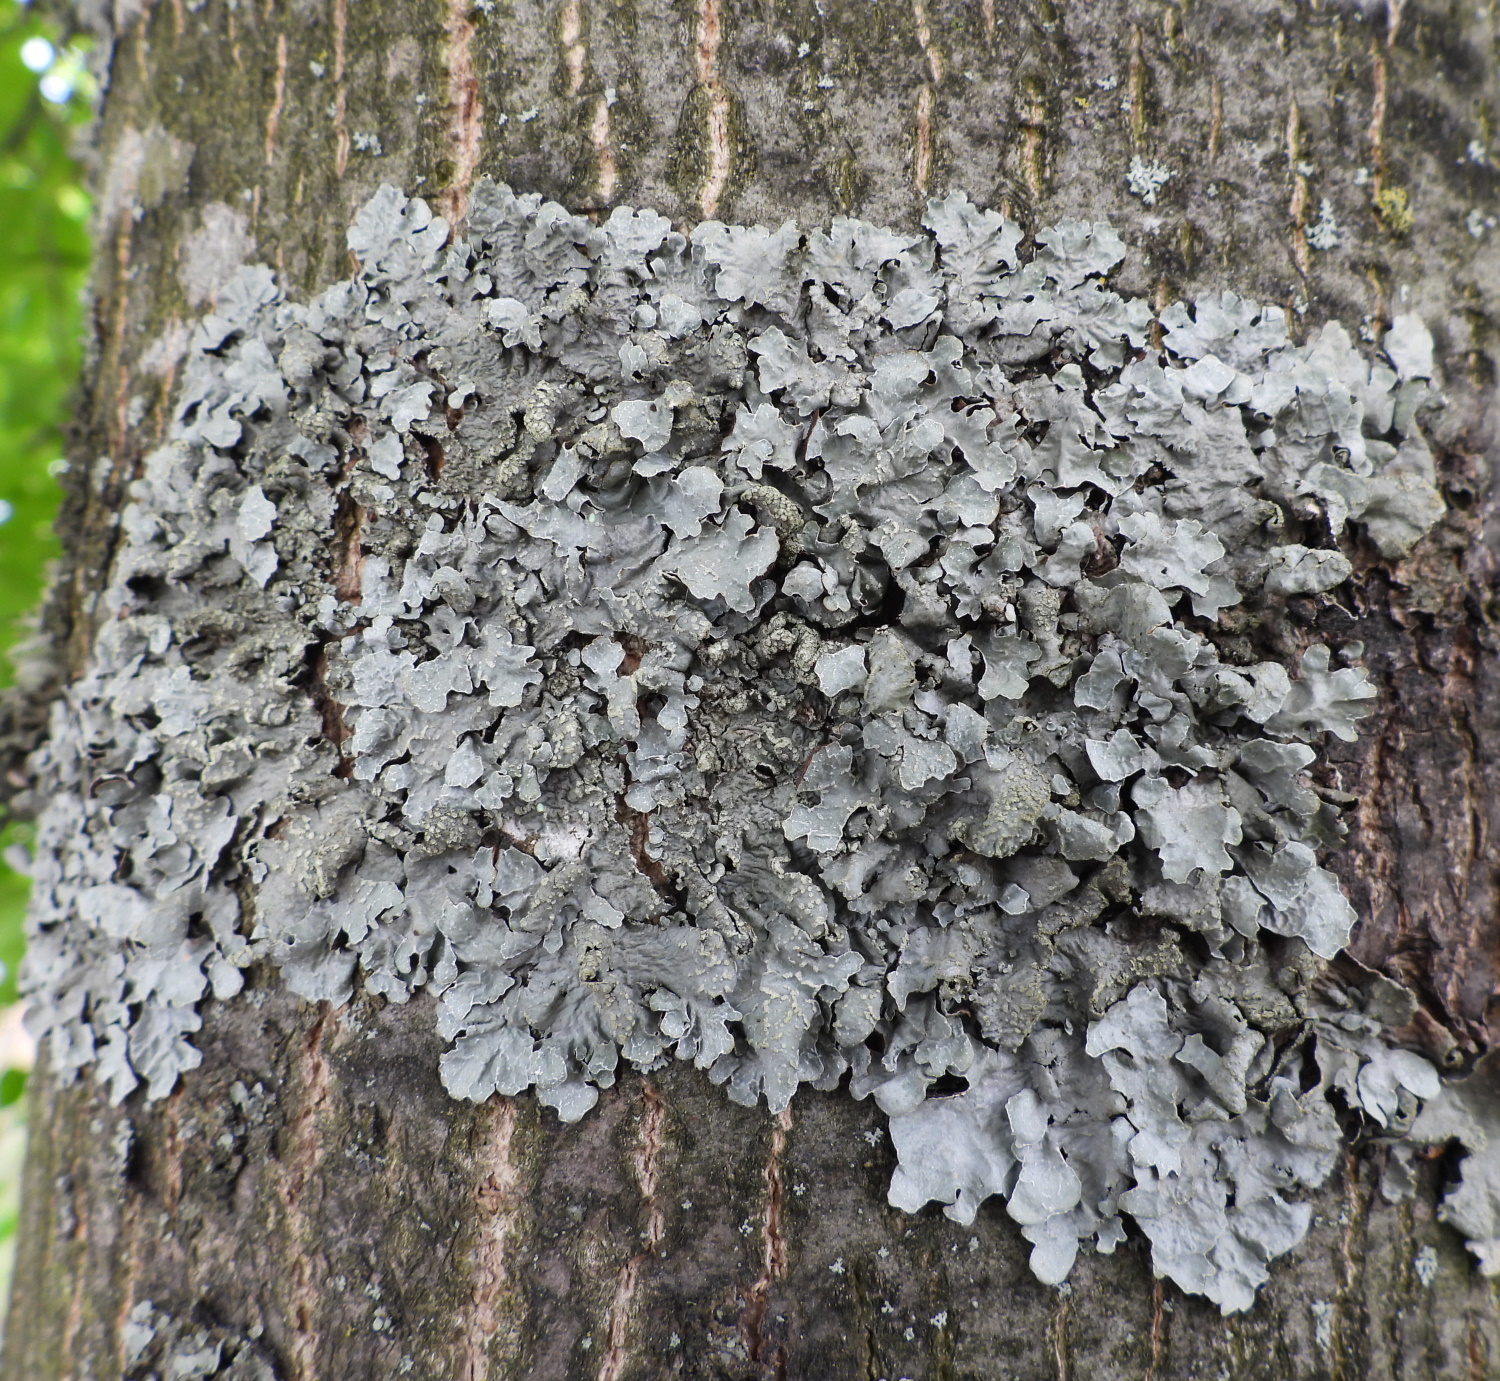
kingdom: Fungi
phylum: Ascomycota
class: Lecanoromycetes
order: Lecanorales
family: Parmeliaceae
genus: Parmelia
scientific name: Parmelia sulcata
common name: Netted shield lichen
